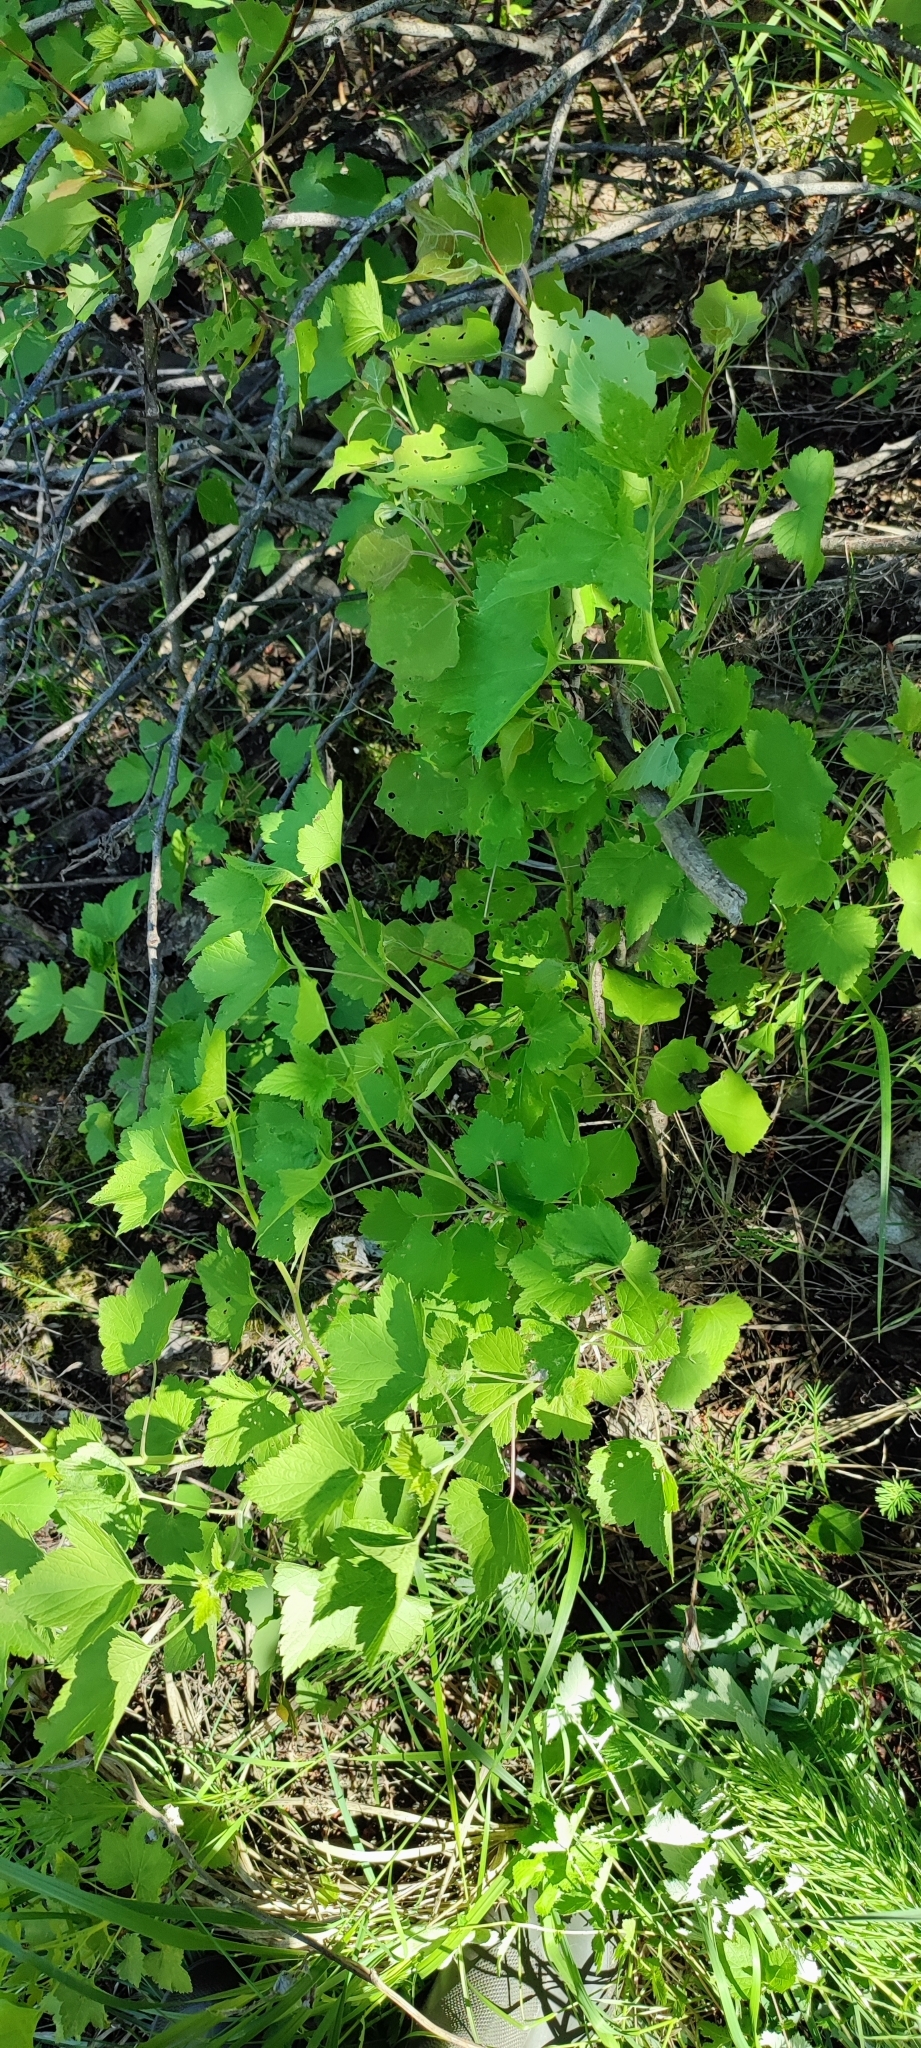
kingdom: Plantae
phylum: Tracheophyta
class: Magnoliopsida
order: Saxifragales
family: Grossulariaceae
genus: Ribes
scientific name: Ribes nigrum
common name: Black currant
